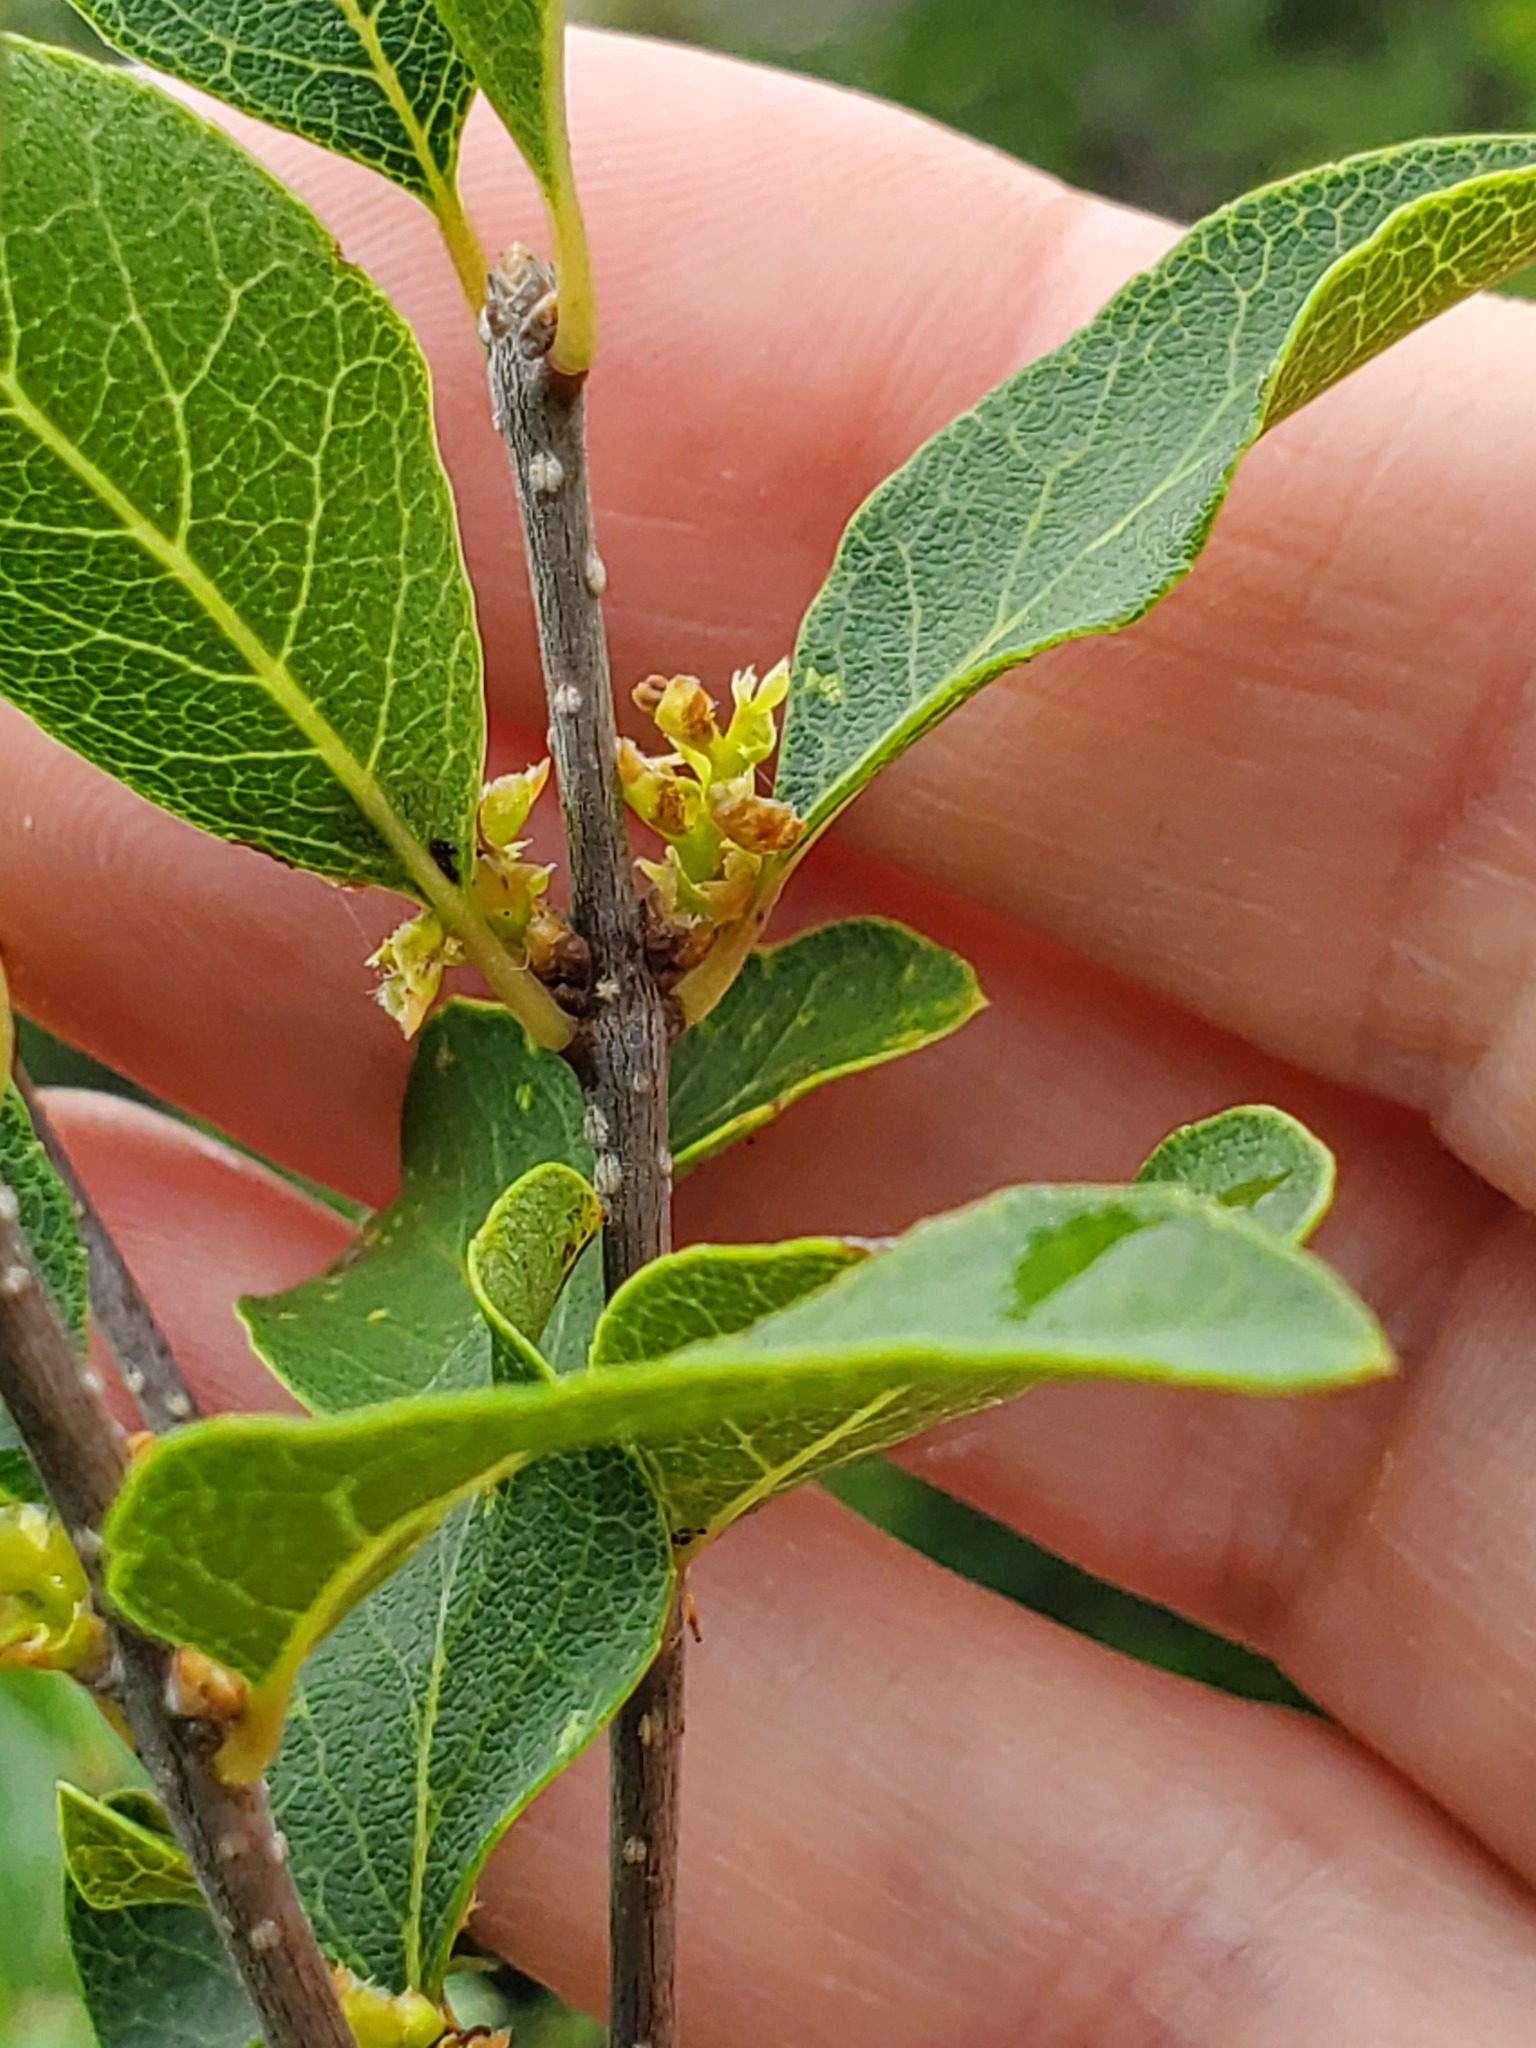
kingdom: Plantae
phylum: Tracheophyta
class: Magnoliopsida
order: Lamiales
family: Oleaceae
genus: Forestiera
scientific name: Forestiera reticulata
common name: Netleaf swamp-privet
